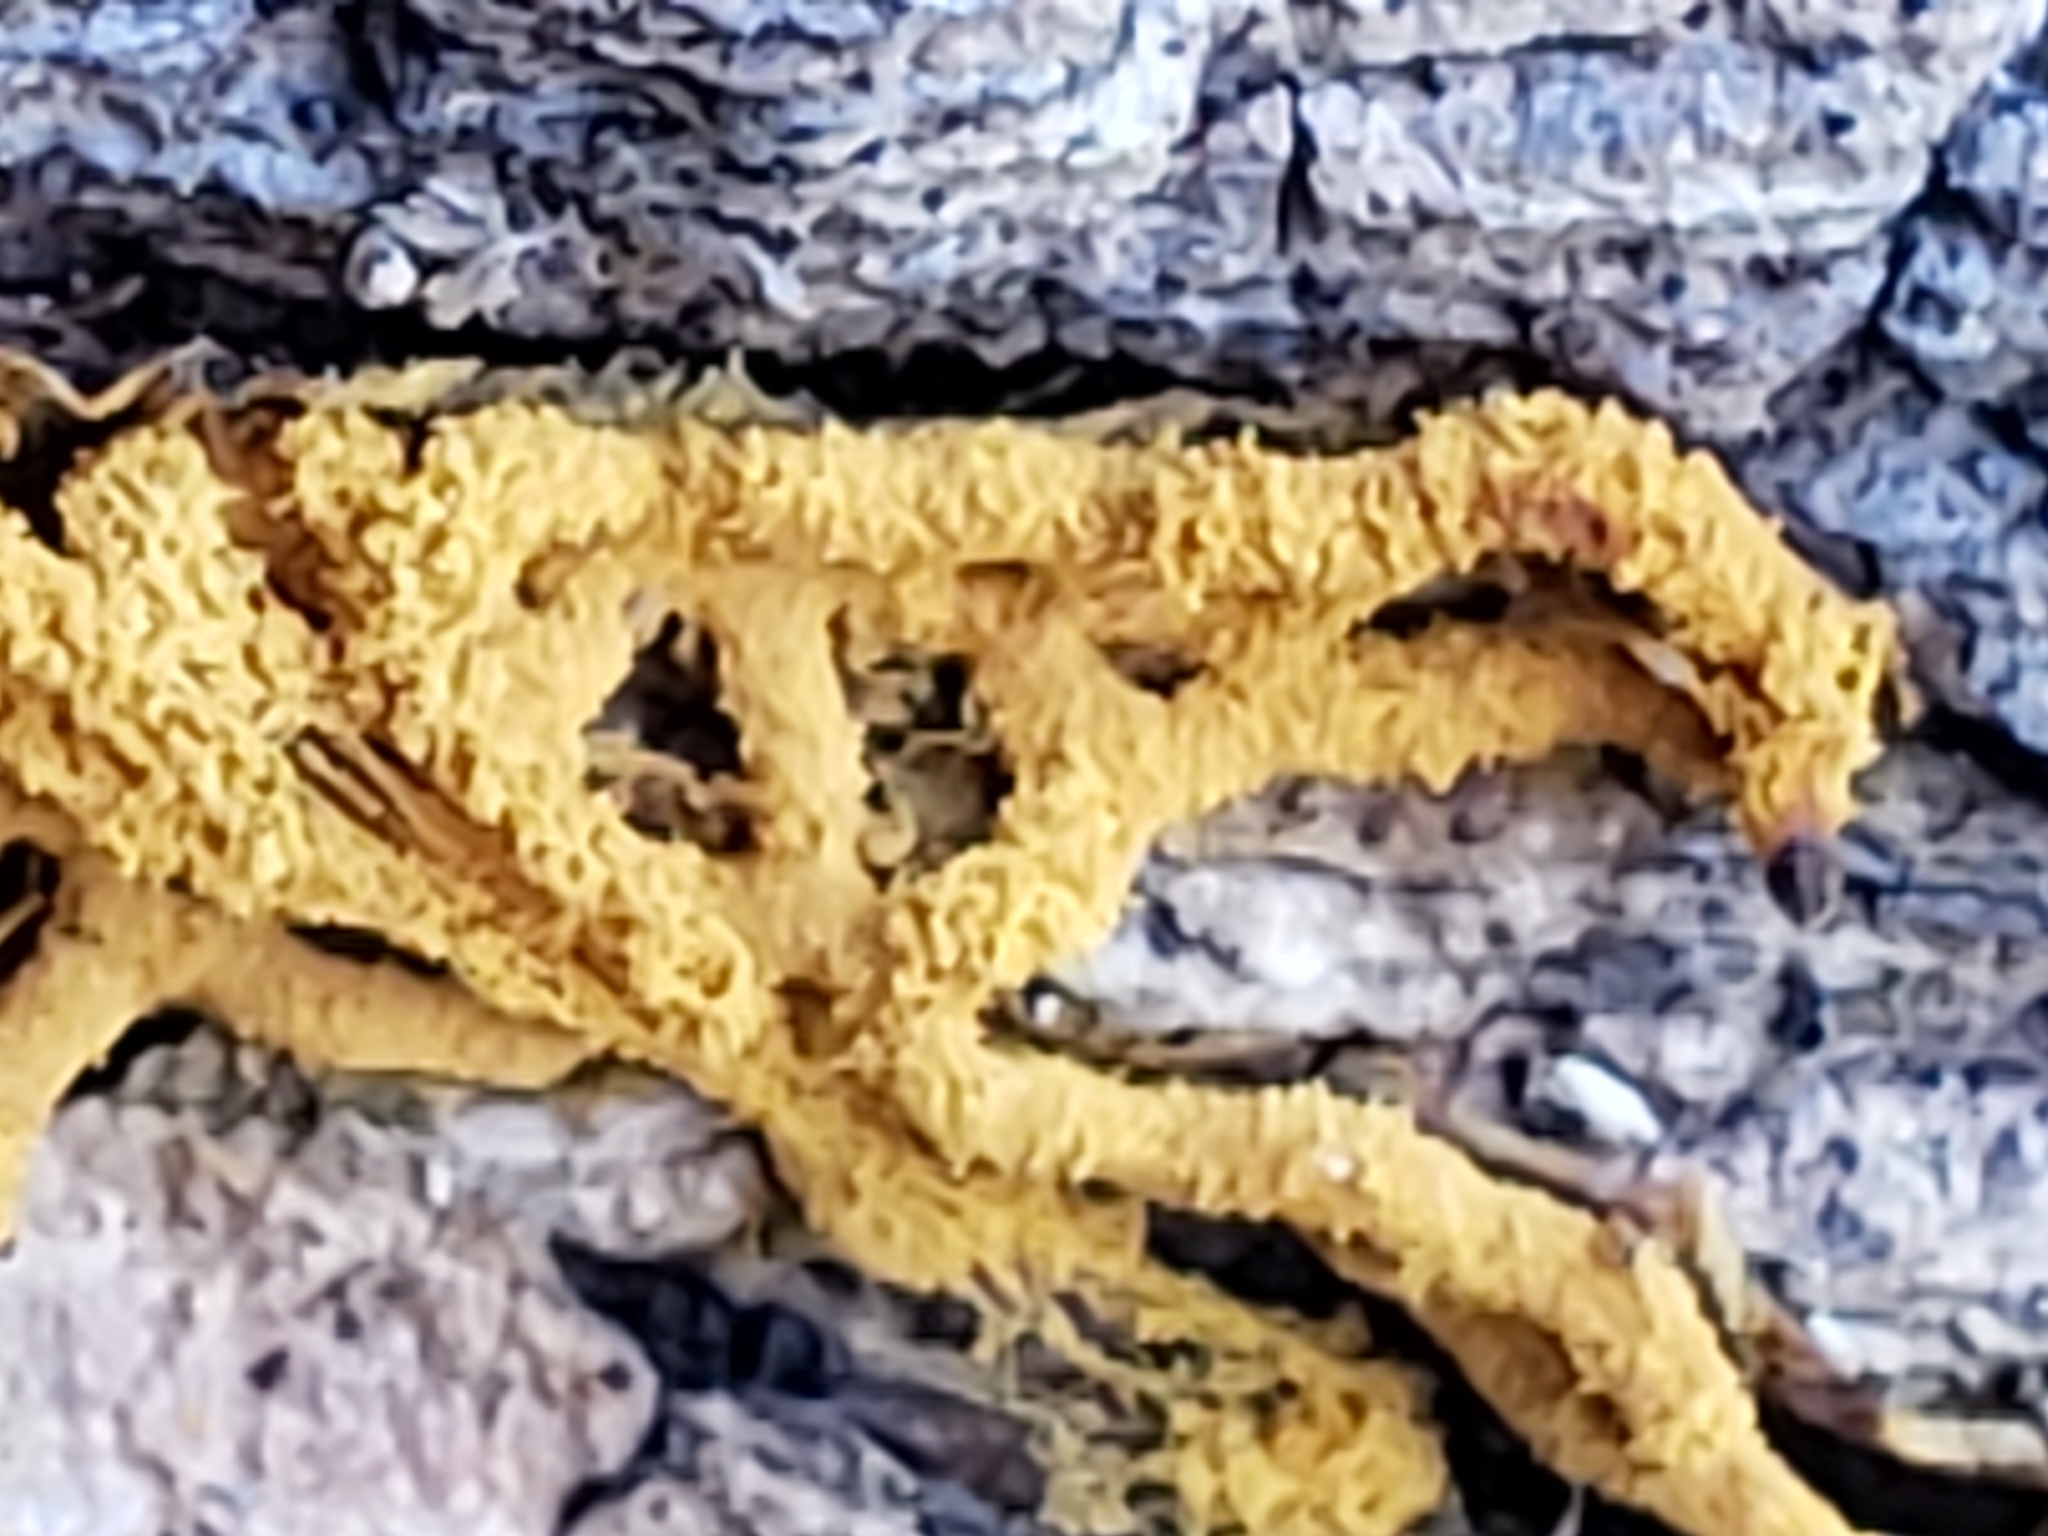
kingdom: Protozoa
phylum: Mycetozoa
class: Myxomycetes
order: Trichiales
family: Arcyriaceae
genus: Hemitrichia
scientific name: Hemitrichia serpula
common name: Pretzel slime mold
